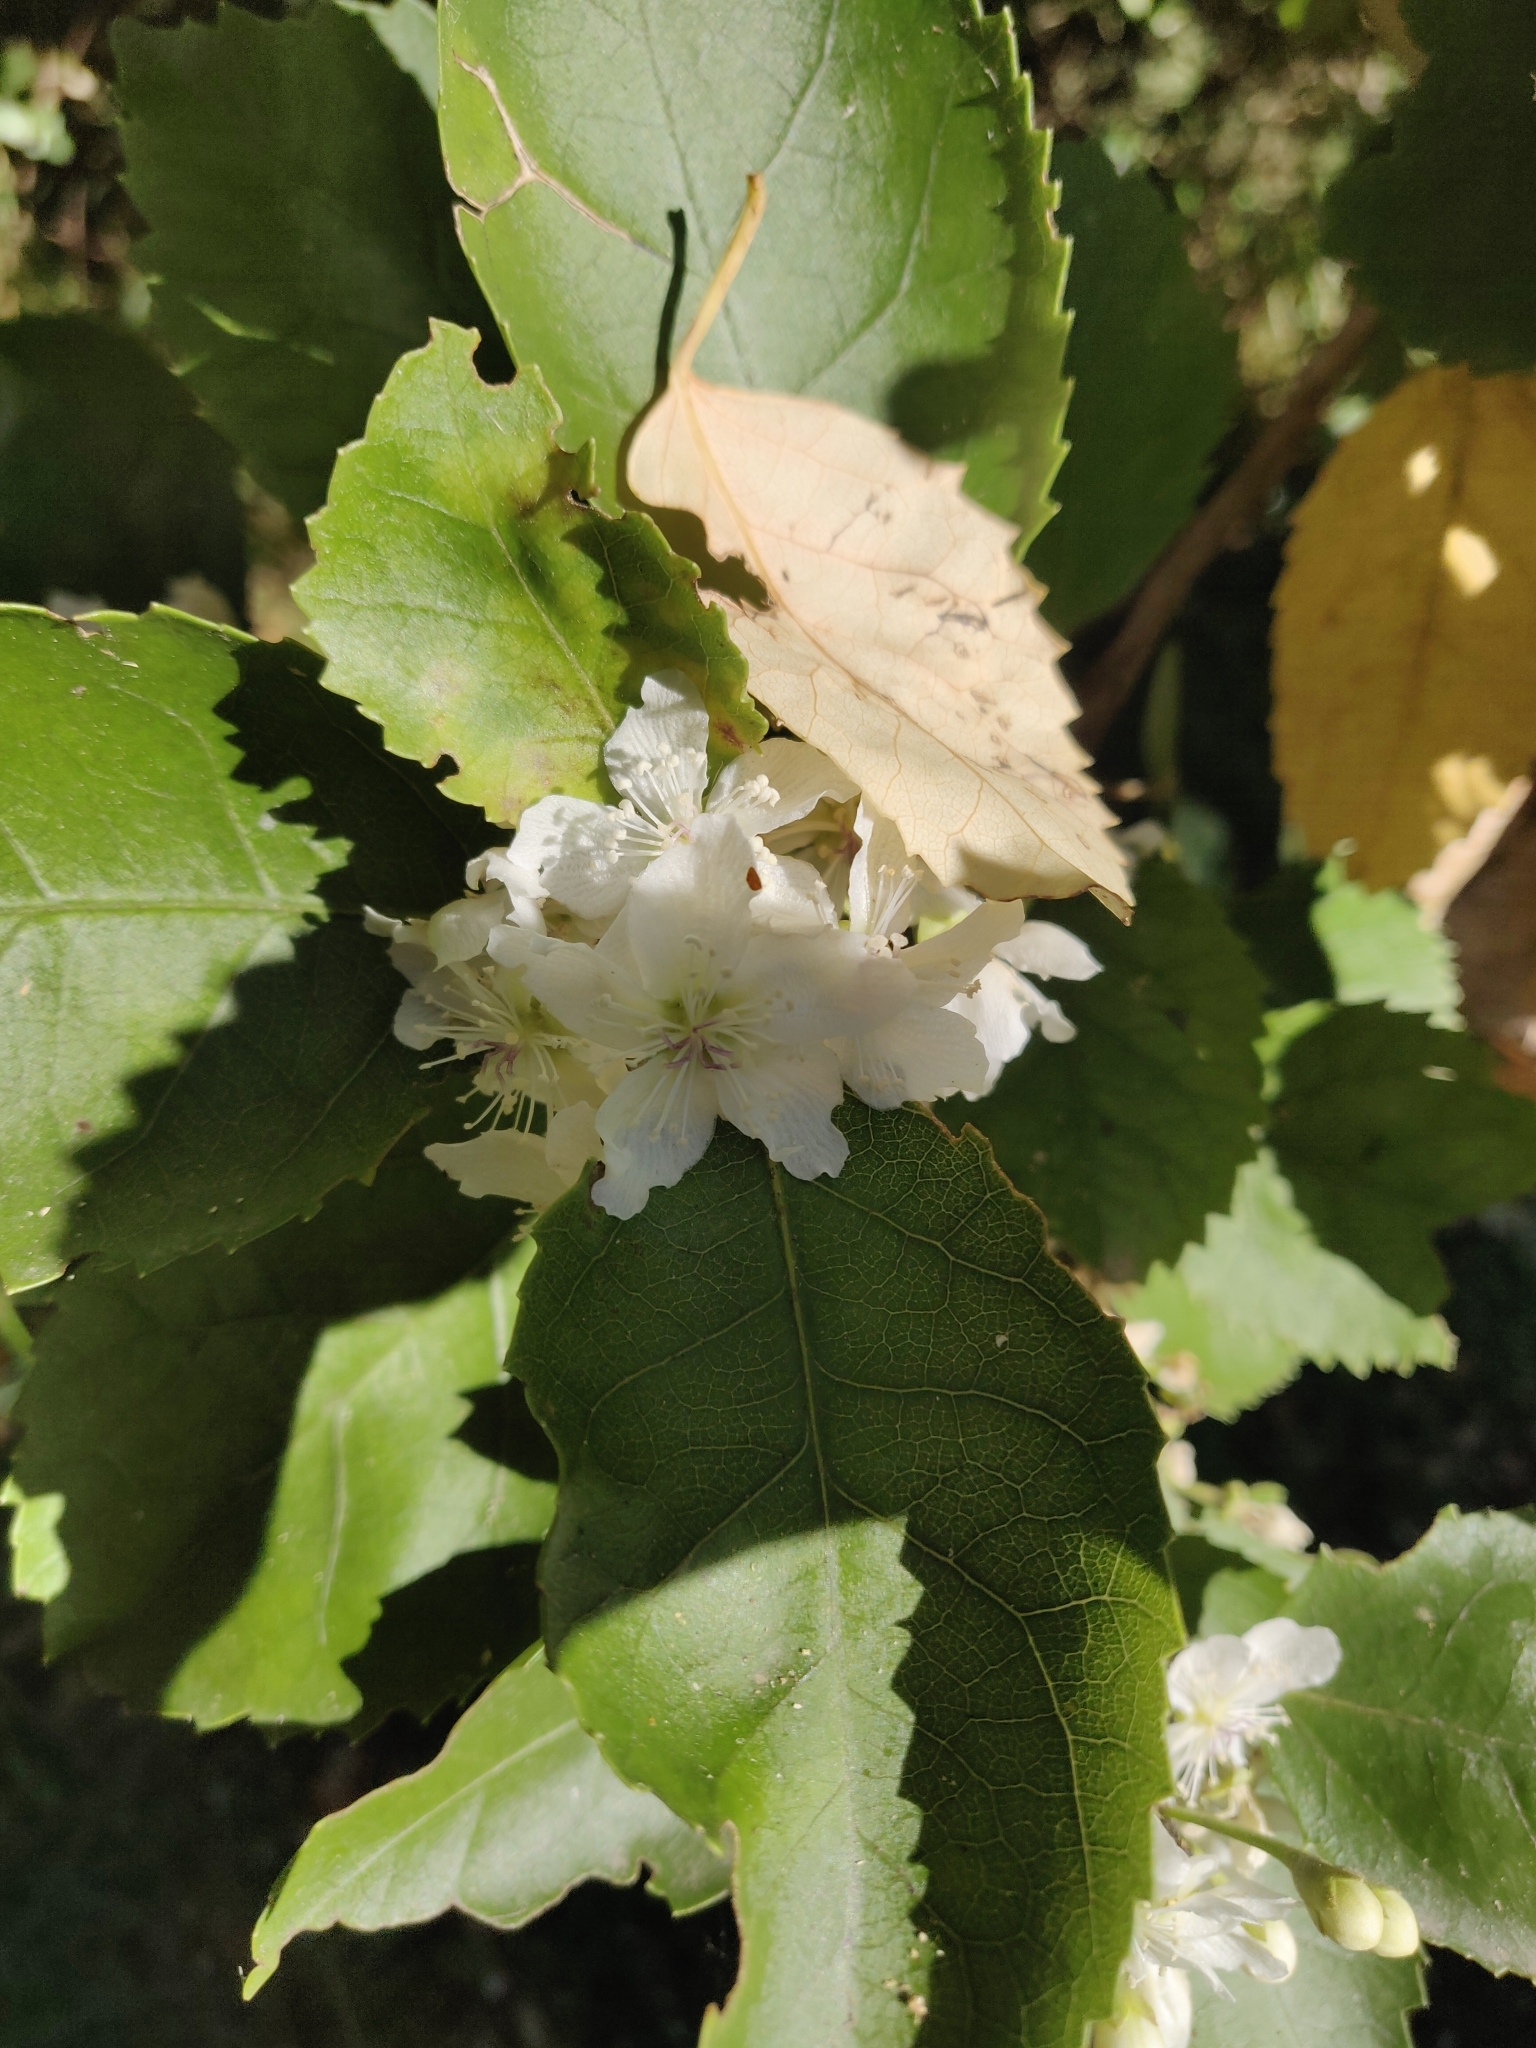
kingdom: Plantae
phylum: Tracheophyta
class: Magnoliopsida
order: Malvales
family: Malvaceae
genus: Hoheria
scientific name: Hoheria populnea
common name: Lacebark
